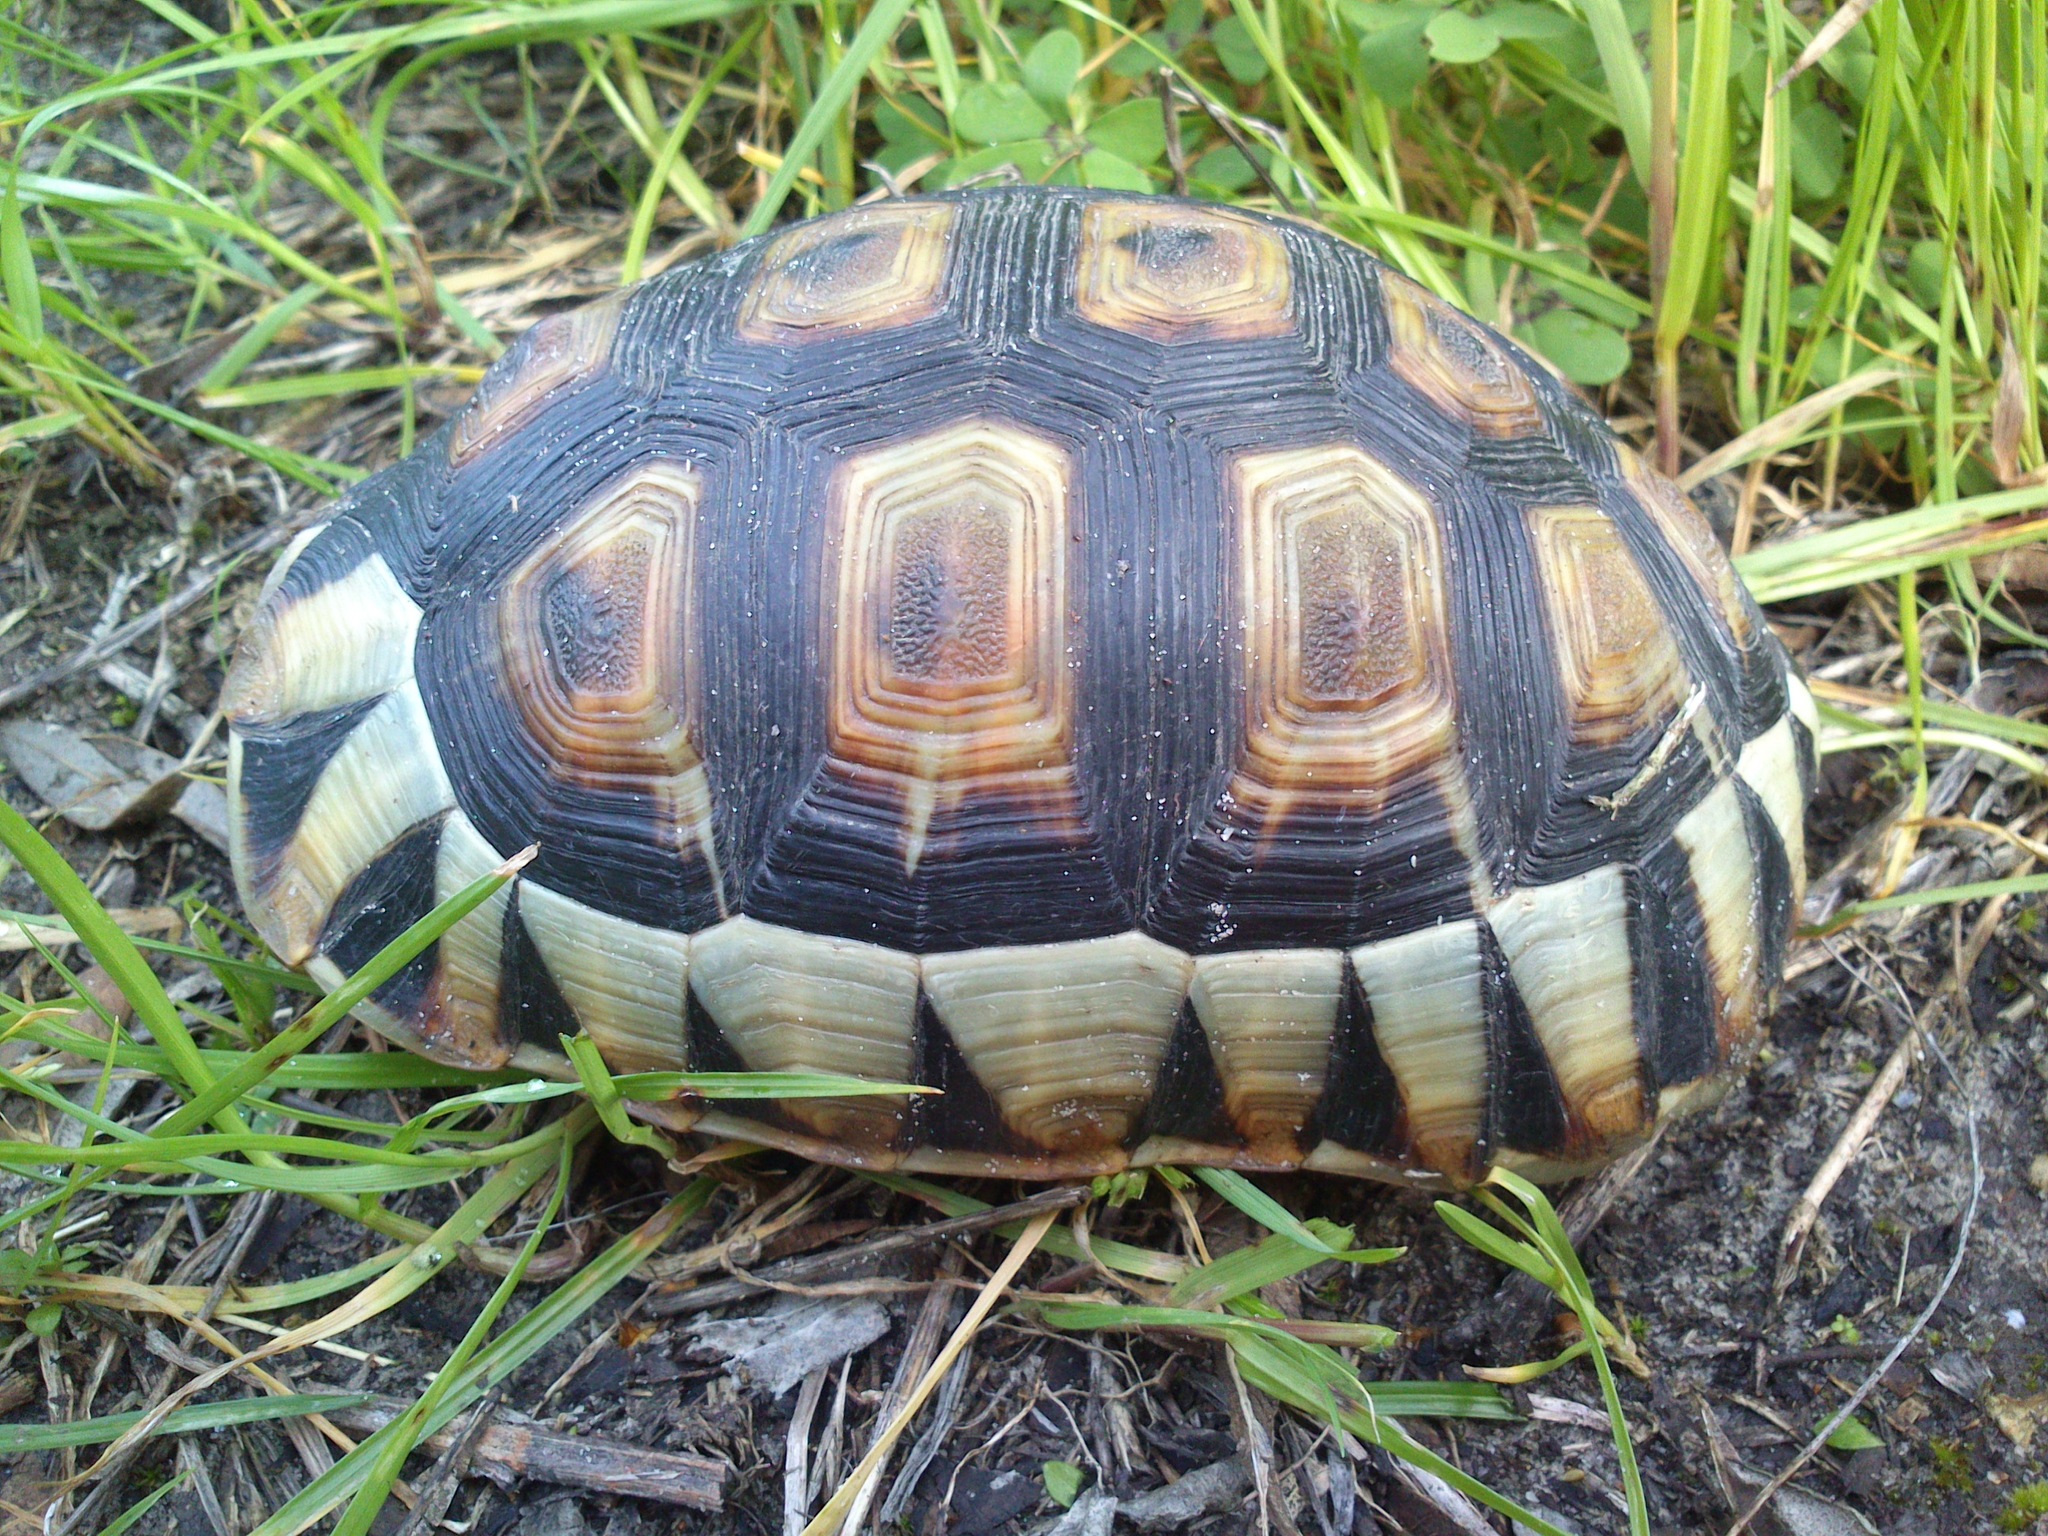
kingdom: Animalia
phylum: Chordata
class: Testudines
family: Testudinidae
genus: Chersina
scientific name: Chersina angulata
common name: South african bowsprit tortoise
